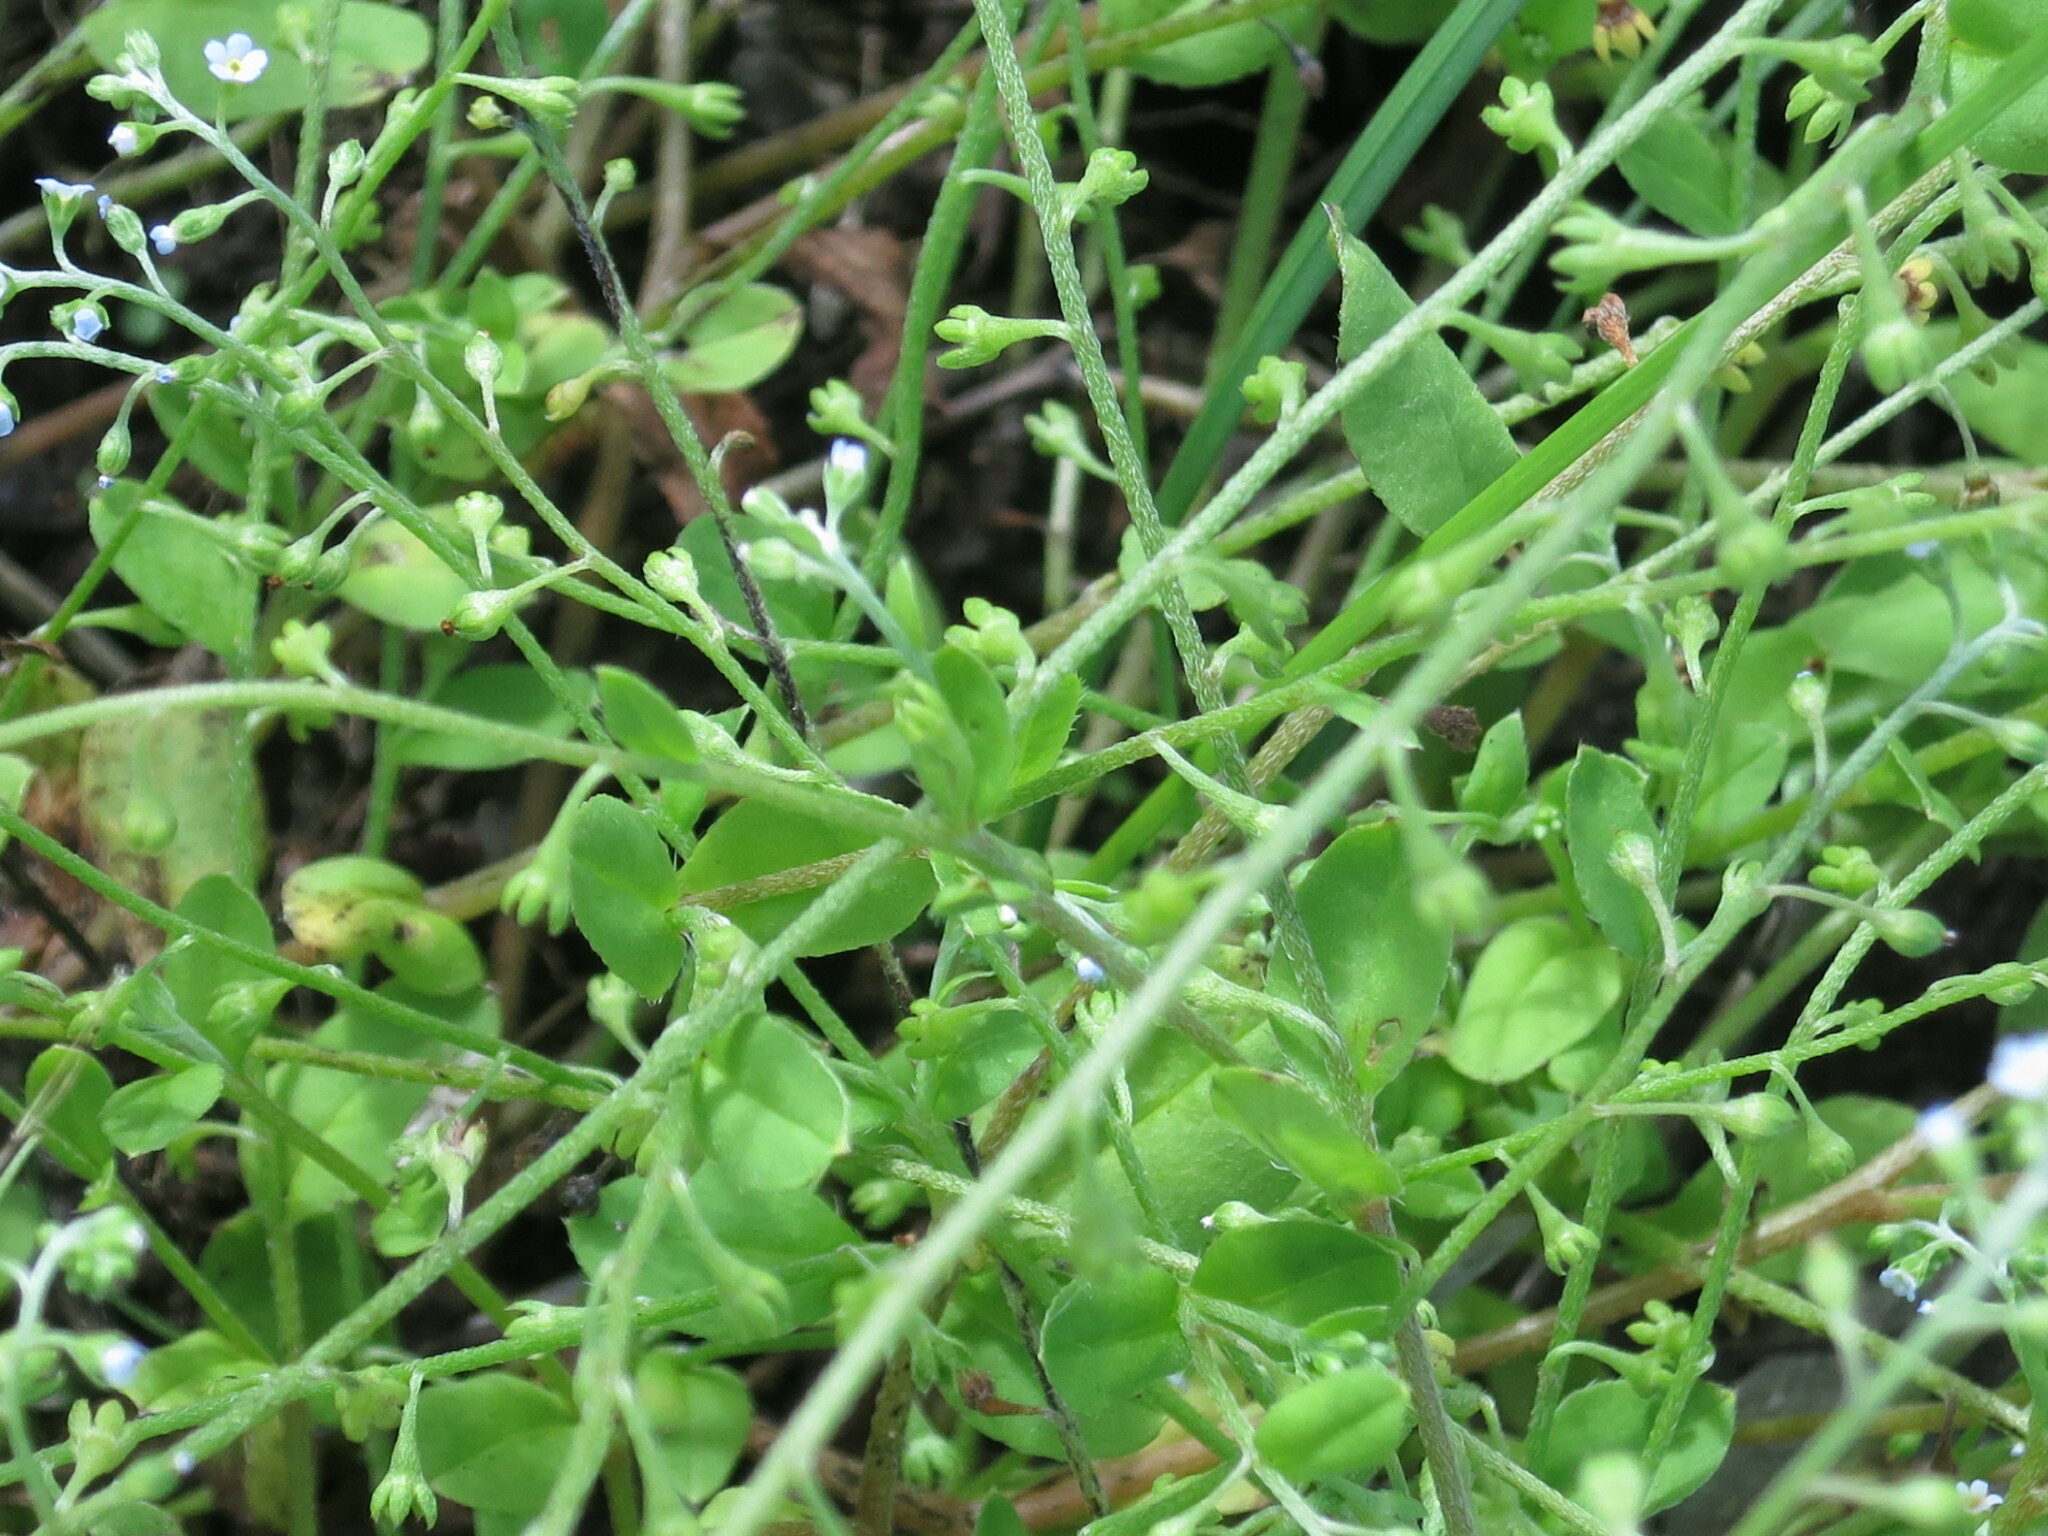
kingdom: Plantae
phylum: Tracheophyta
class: Magnoliopsida
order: Boraginales
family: Boraginaceae
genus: Trigonotis
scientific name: Trigonotis peduncularis
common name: Cucumber herb
